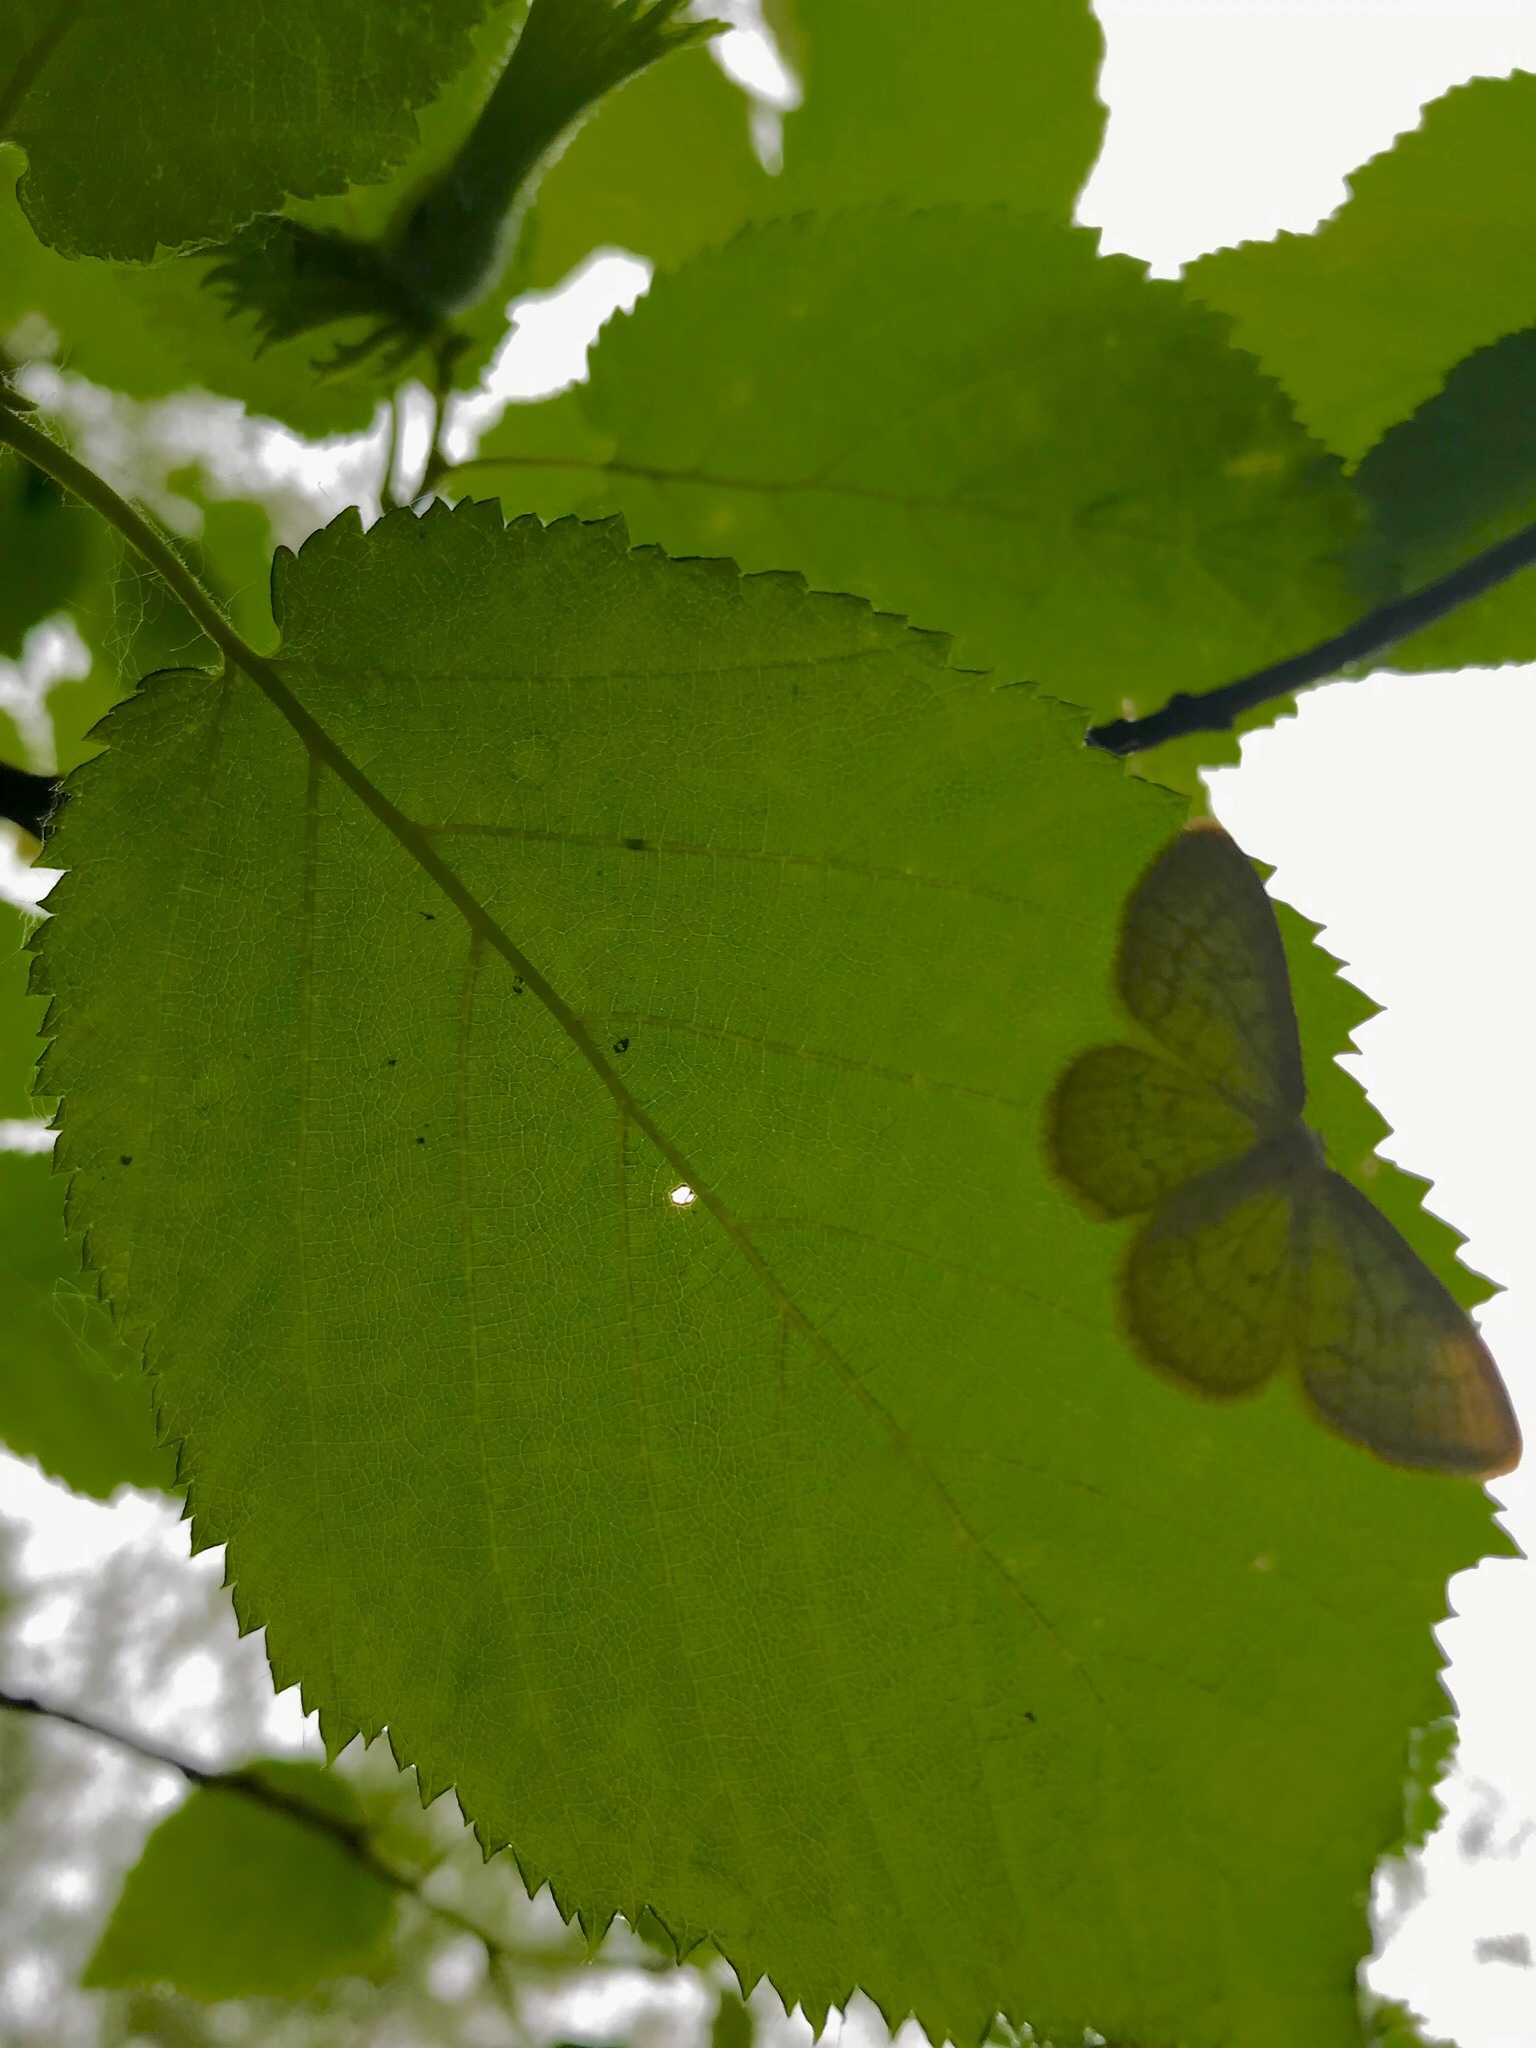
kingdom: Animalia
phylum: Arthropoda
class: Insecta
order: Lepidoptera
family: Geometridae
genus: Cabera
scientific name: Cabera erythemaria
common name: Yellow-dusted cream moth
